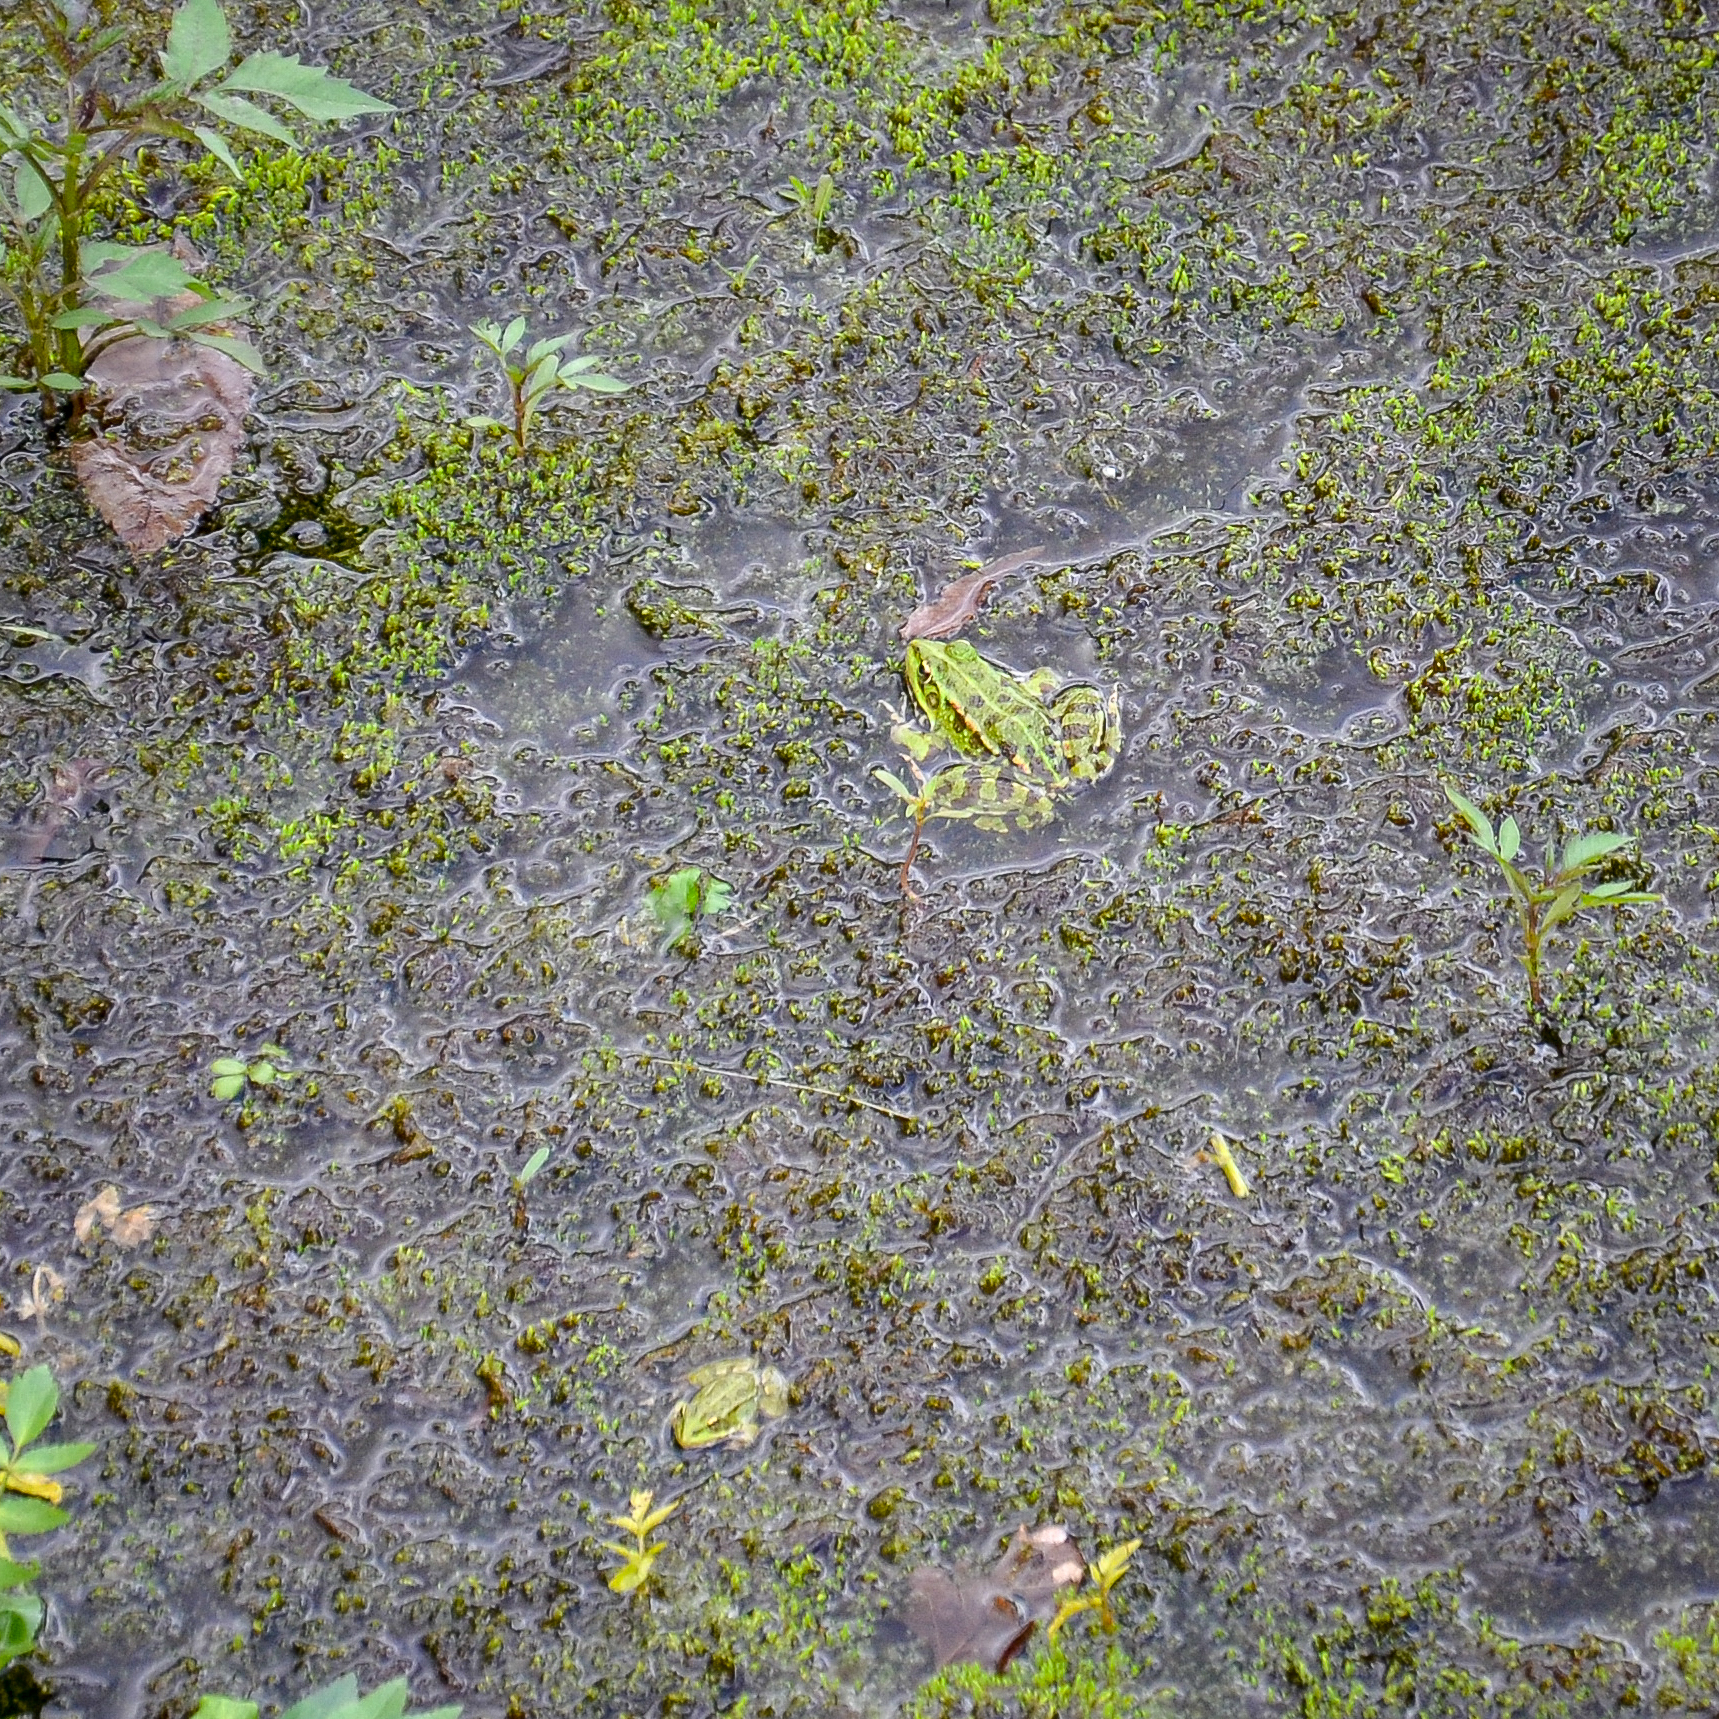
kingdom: Animalia
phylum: Chordata
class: Amphibia
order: Anura
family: Ranidae
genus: Pelophylax
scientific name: Pelophylax perezi
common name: Perez's frog
